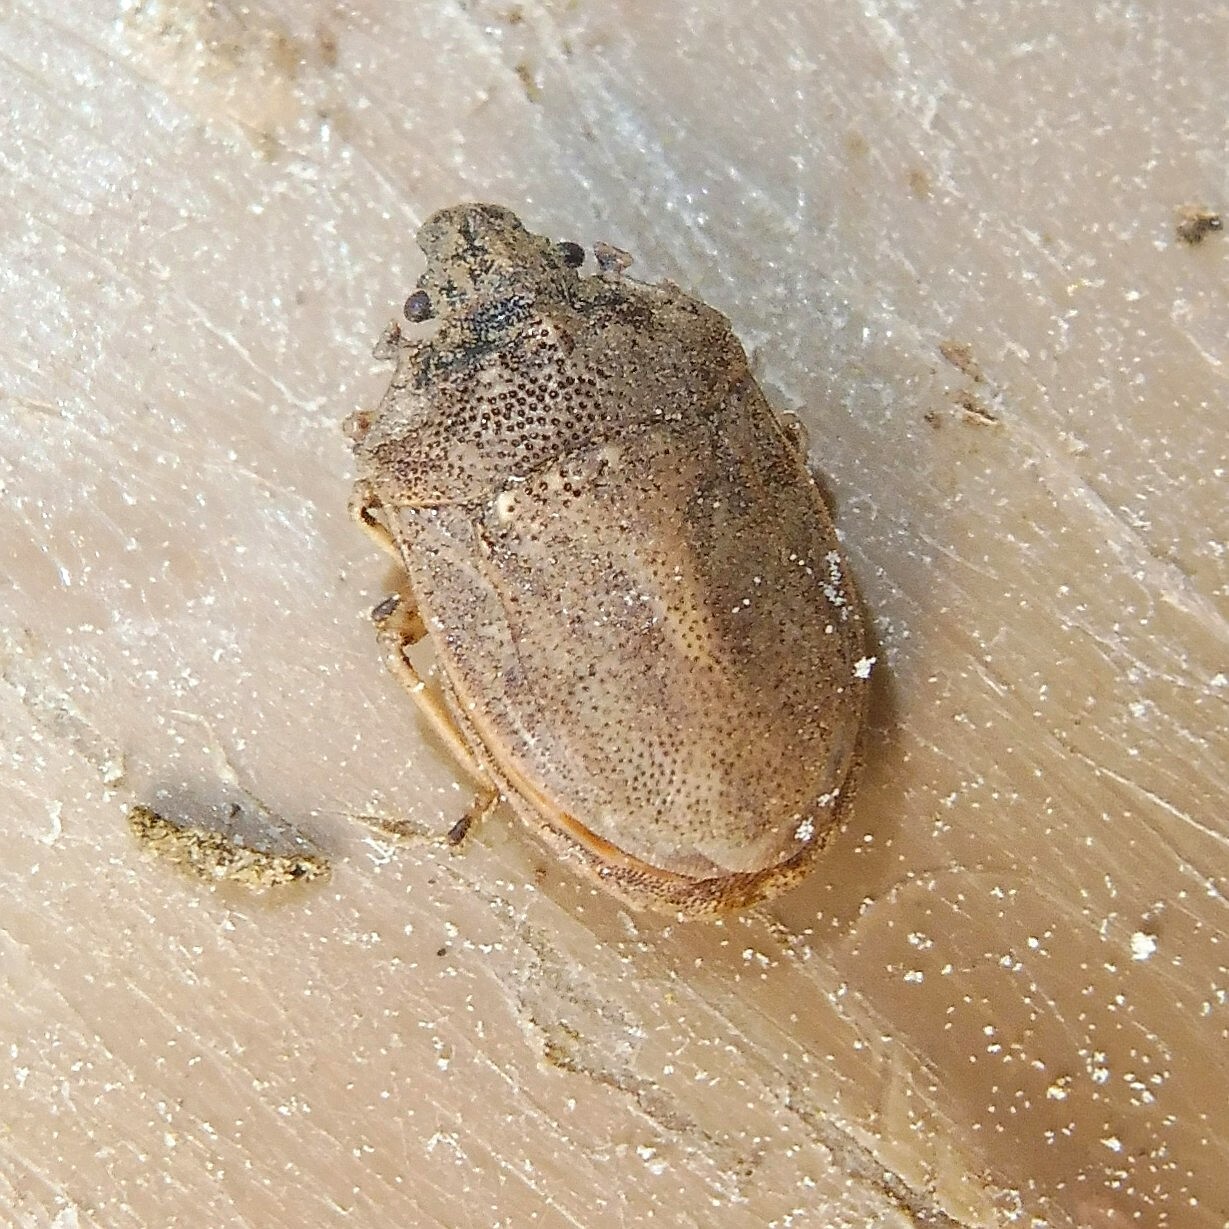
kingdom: Animalia
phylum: Arthropoda
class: Insecta
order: Hemiptera
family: Pentatomidae
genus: Podops
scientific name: Podops inunctus
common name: Turtle bug
